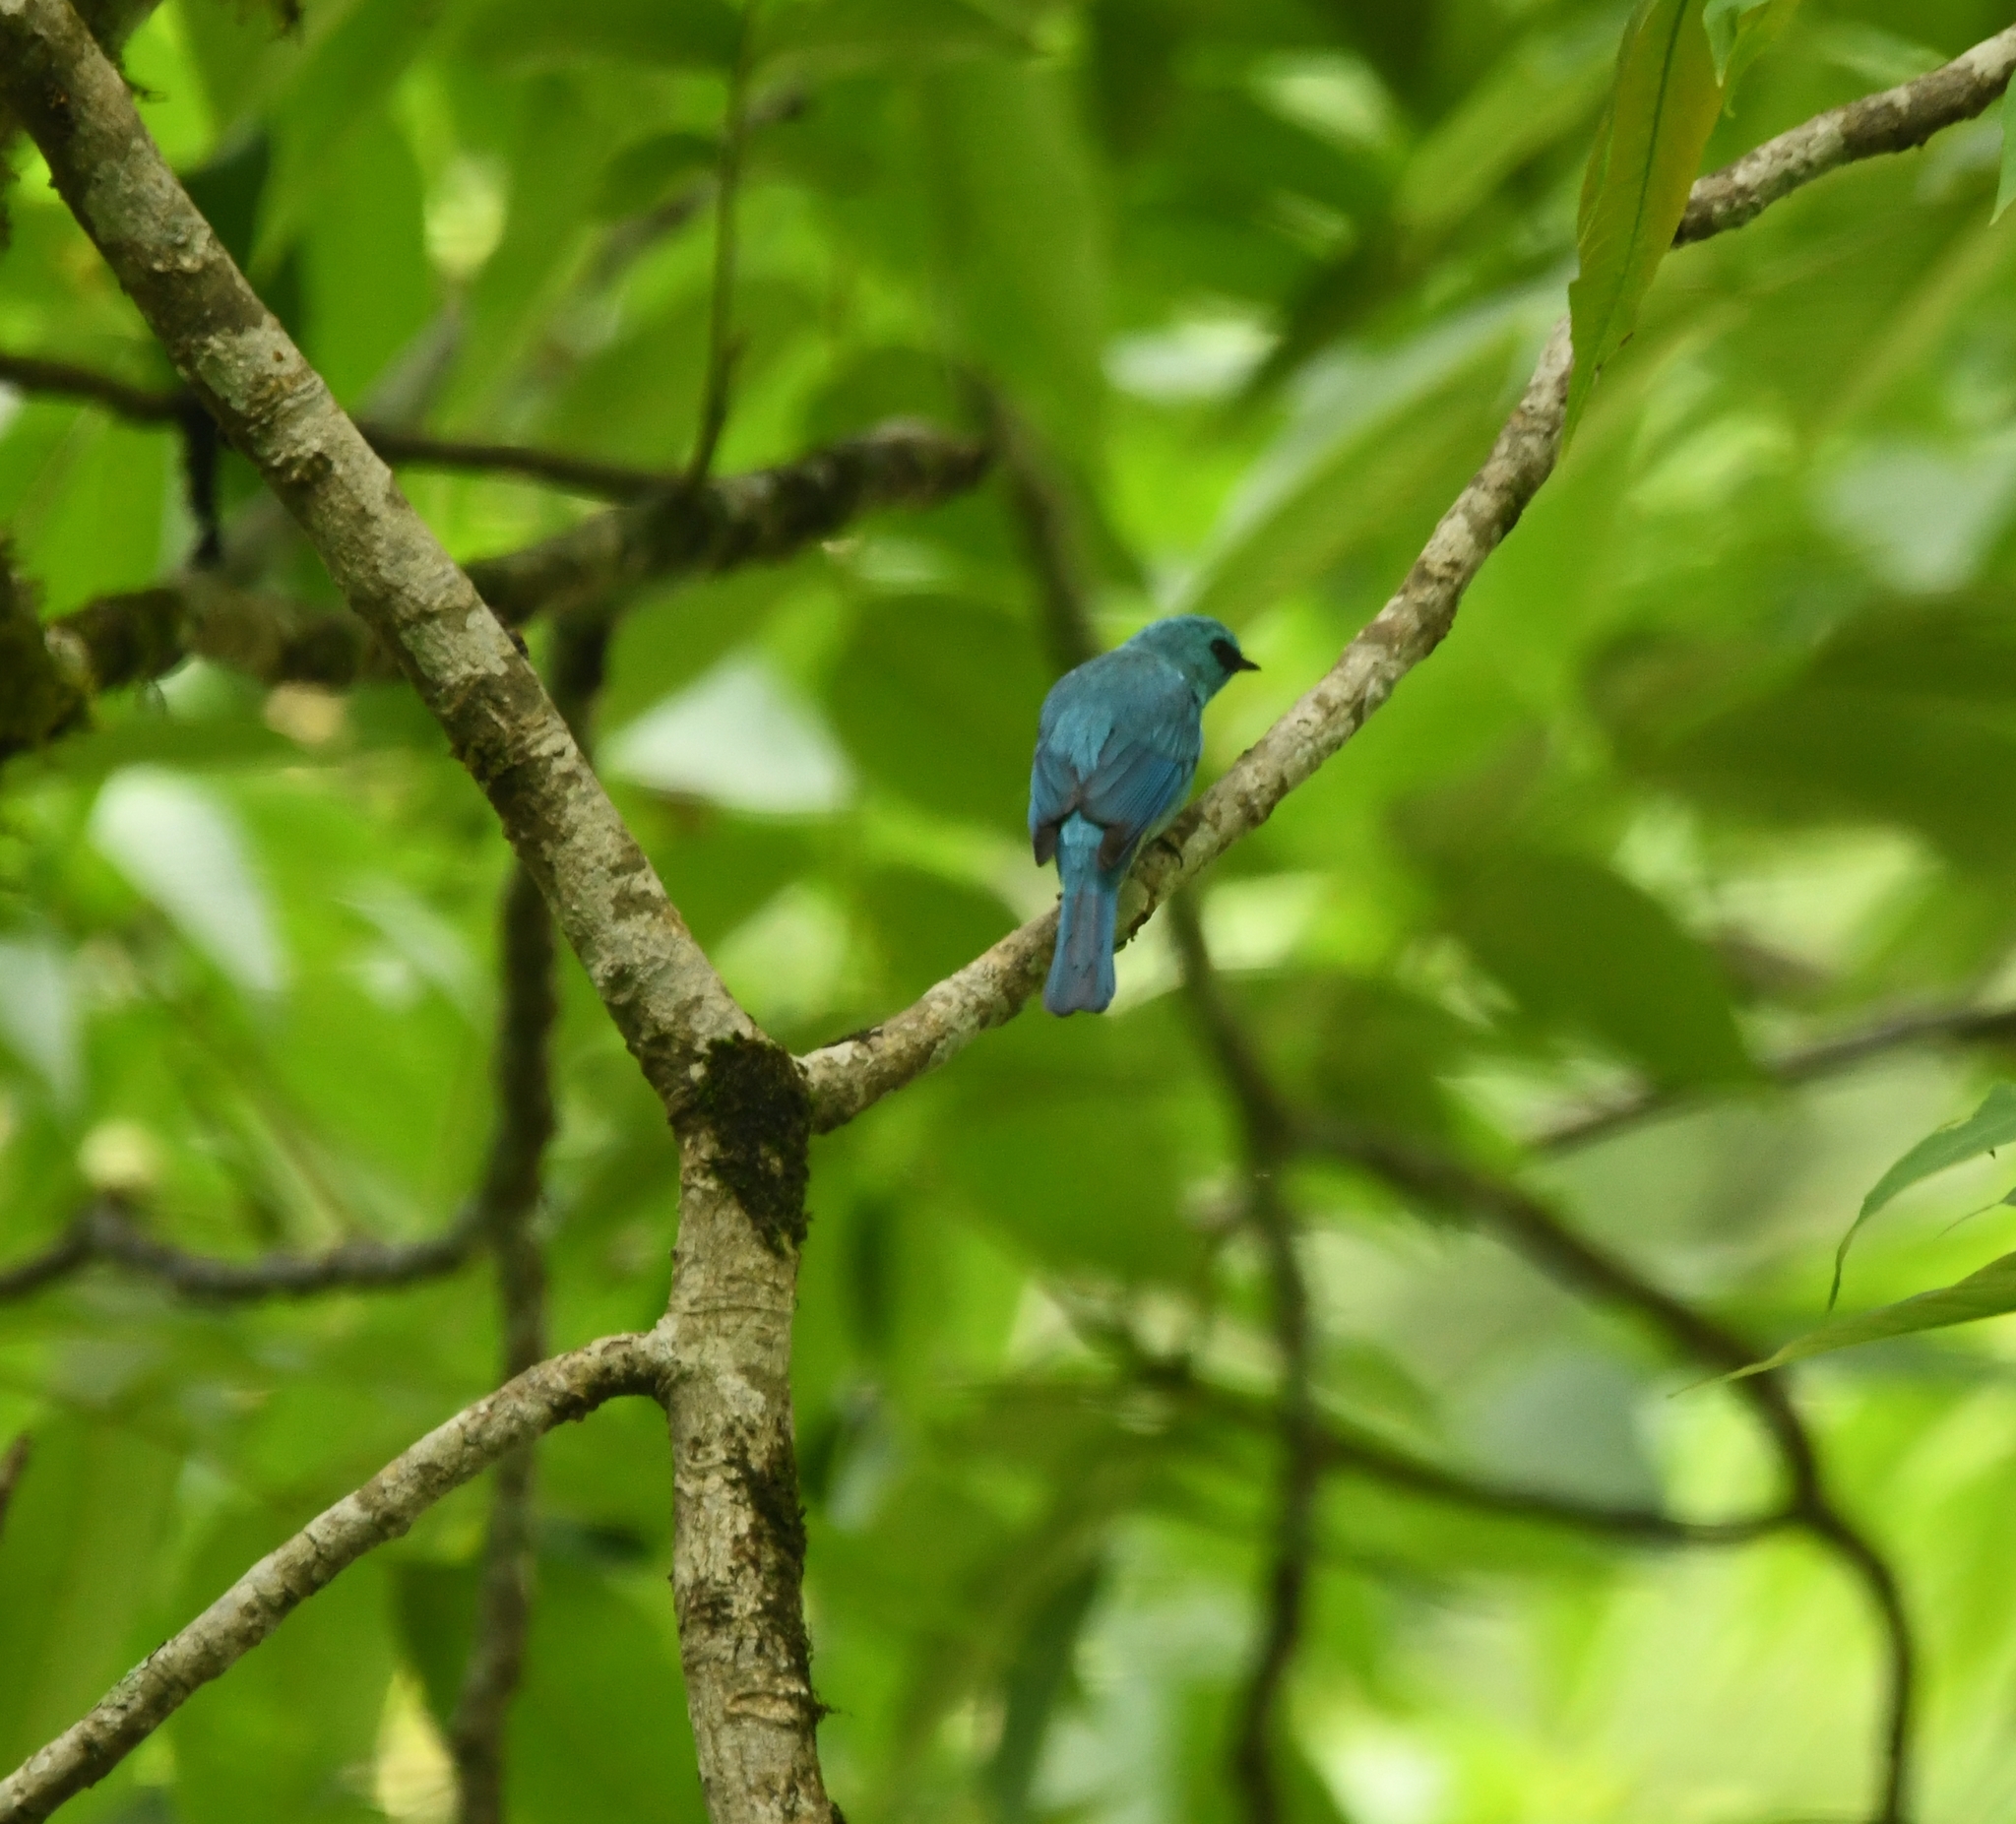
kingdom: Animalia
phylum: Chordata
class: Aves
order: Passeriformes
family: Muscicapidae
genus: Eumyias
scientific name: Eumyias thalassinus
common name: Verditer flycatcher
